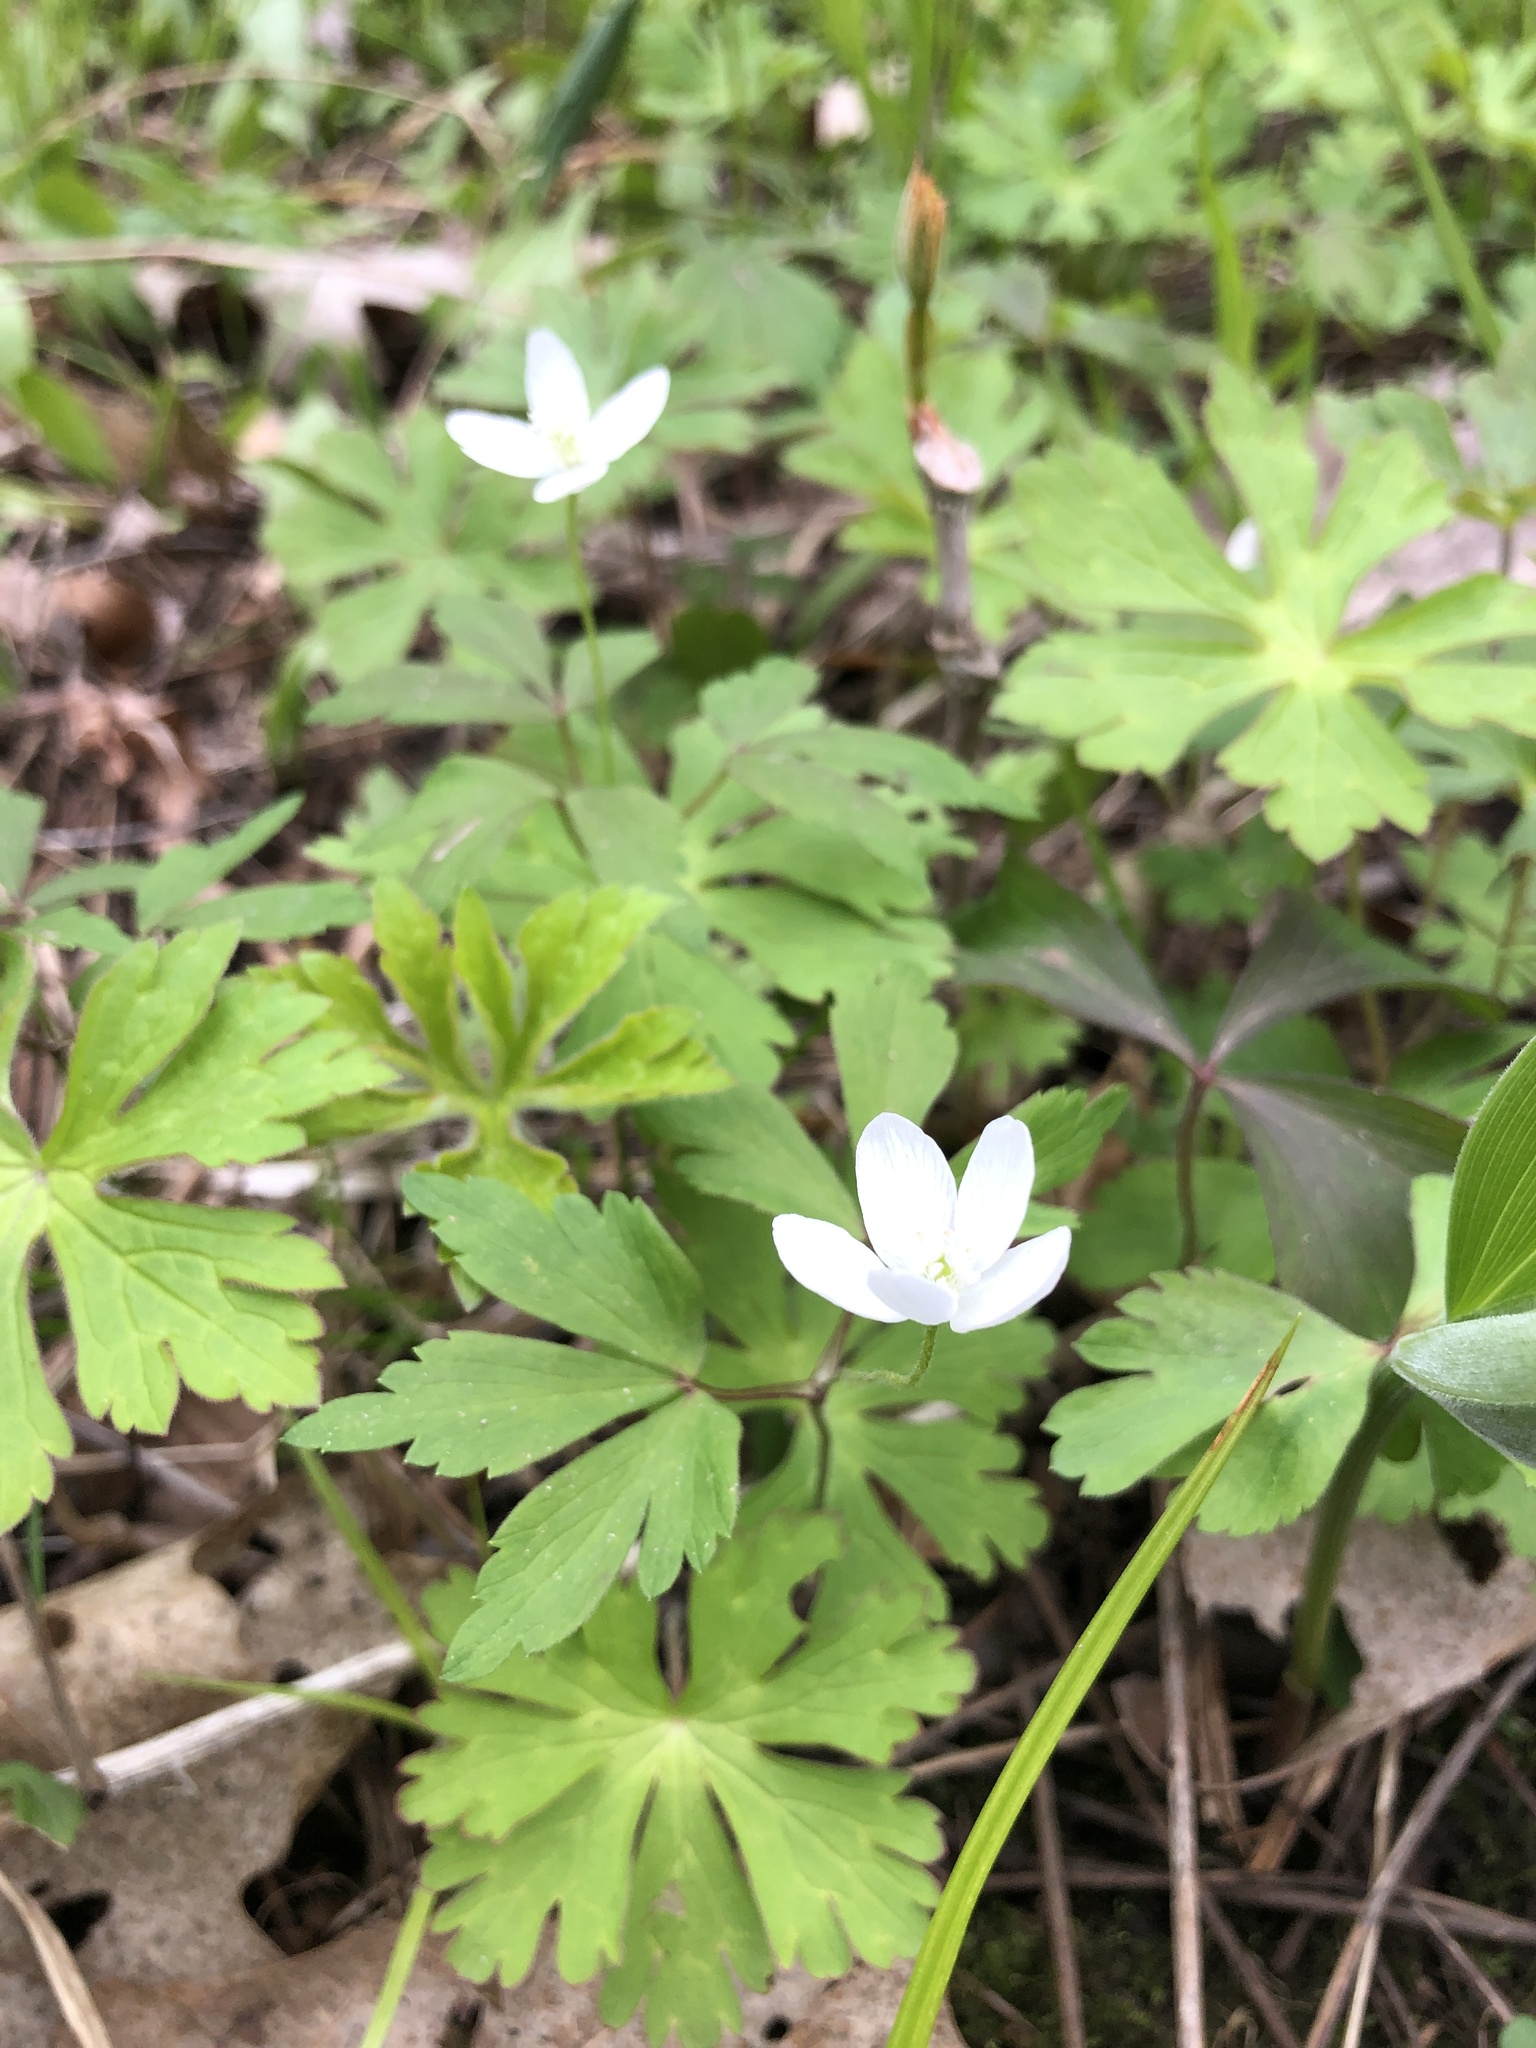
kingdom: Plantae
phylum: Tracheophyta
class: Magnoliopsida
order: Ranunculales
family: Ranunculaceae
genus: Anemone
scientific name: Anemone quinquefolia
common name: Wood anemone
